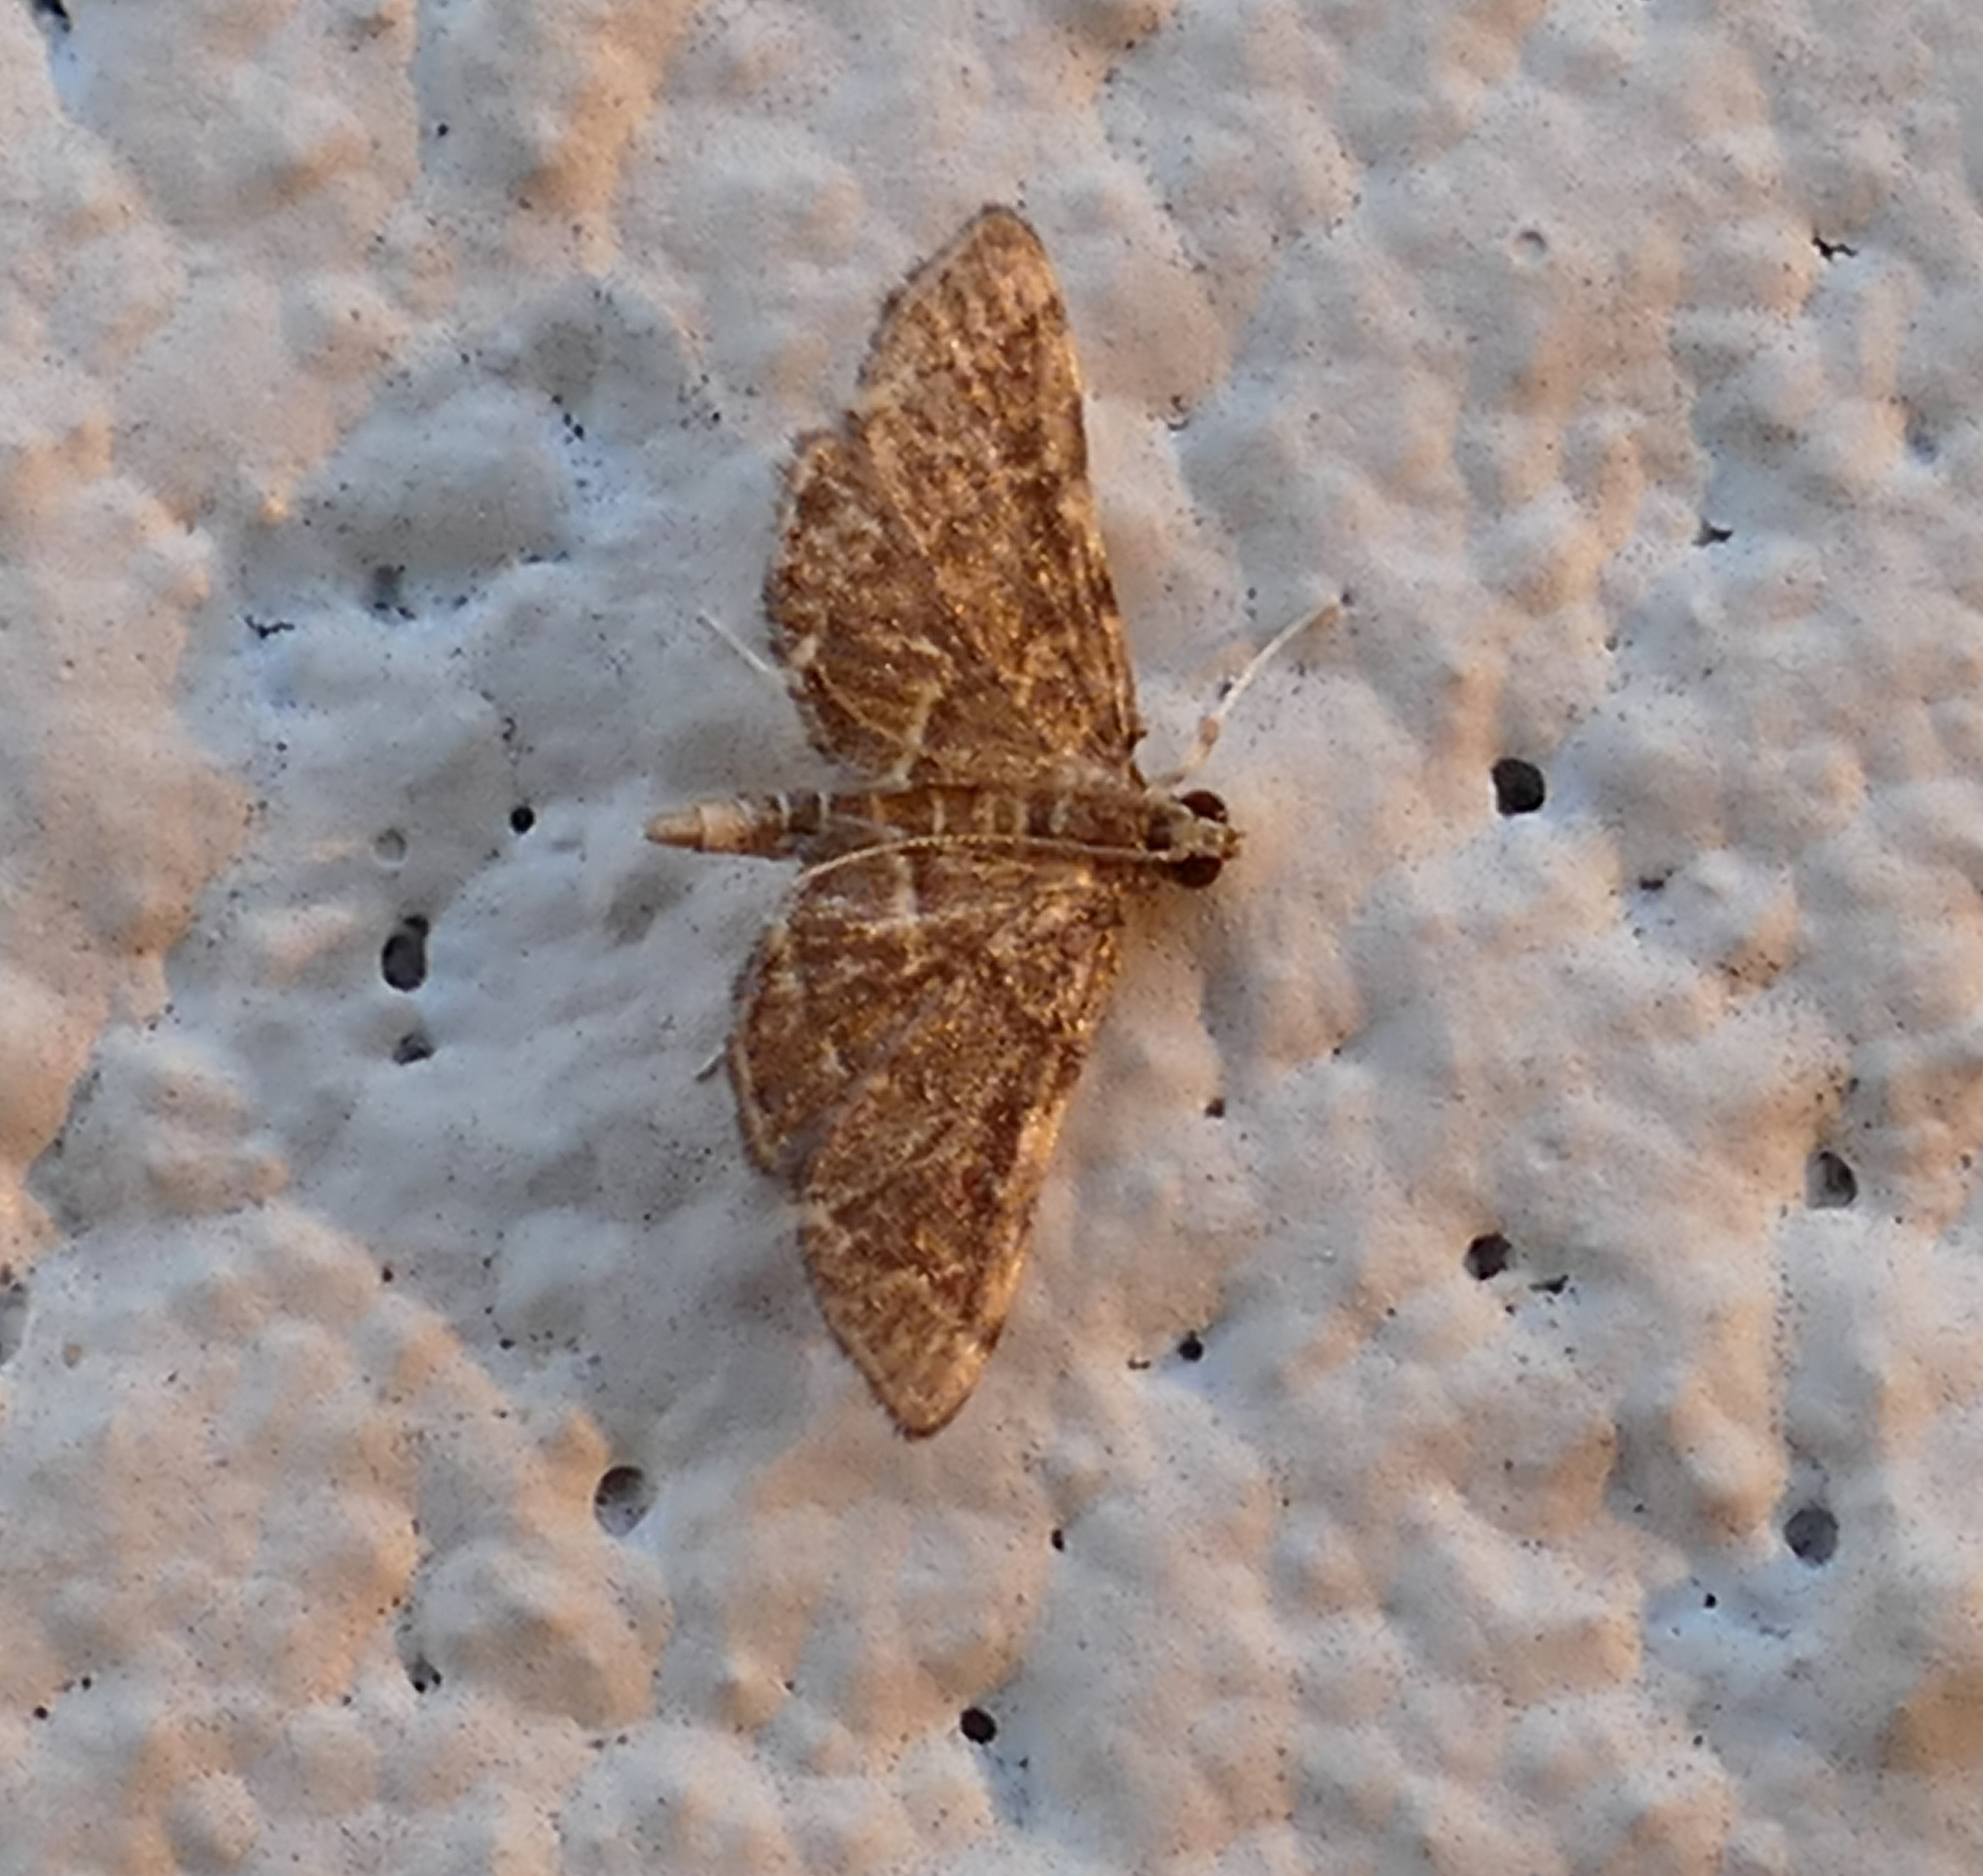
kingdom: Animalia
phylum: Arthropoda
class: Insecta
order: Lepidoptera
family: Crambidae
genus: Anageshna
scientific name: Anageshna primordialis
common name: Yellow-spotted webworm moth
